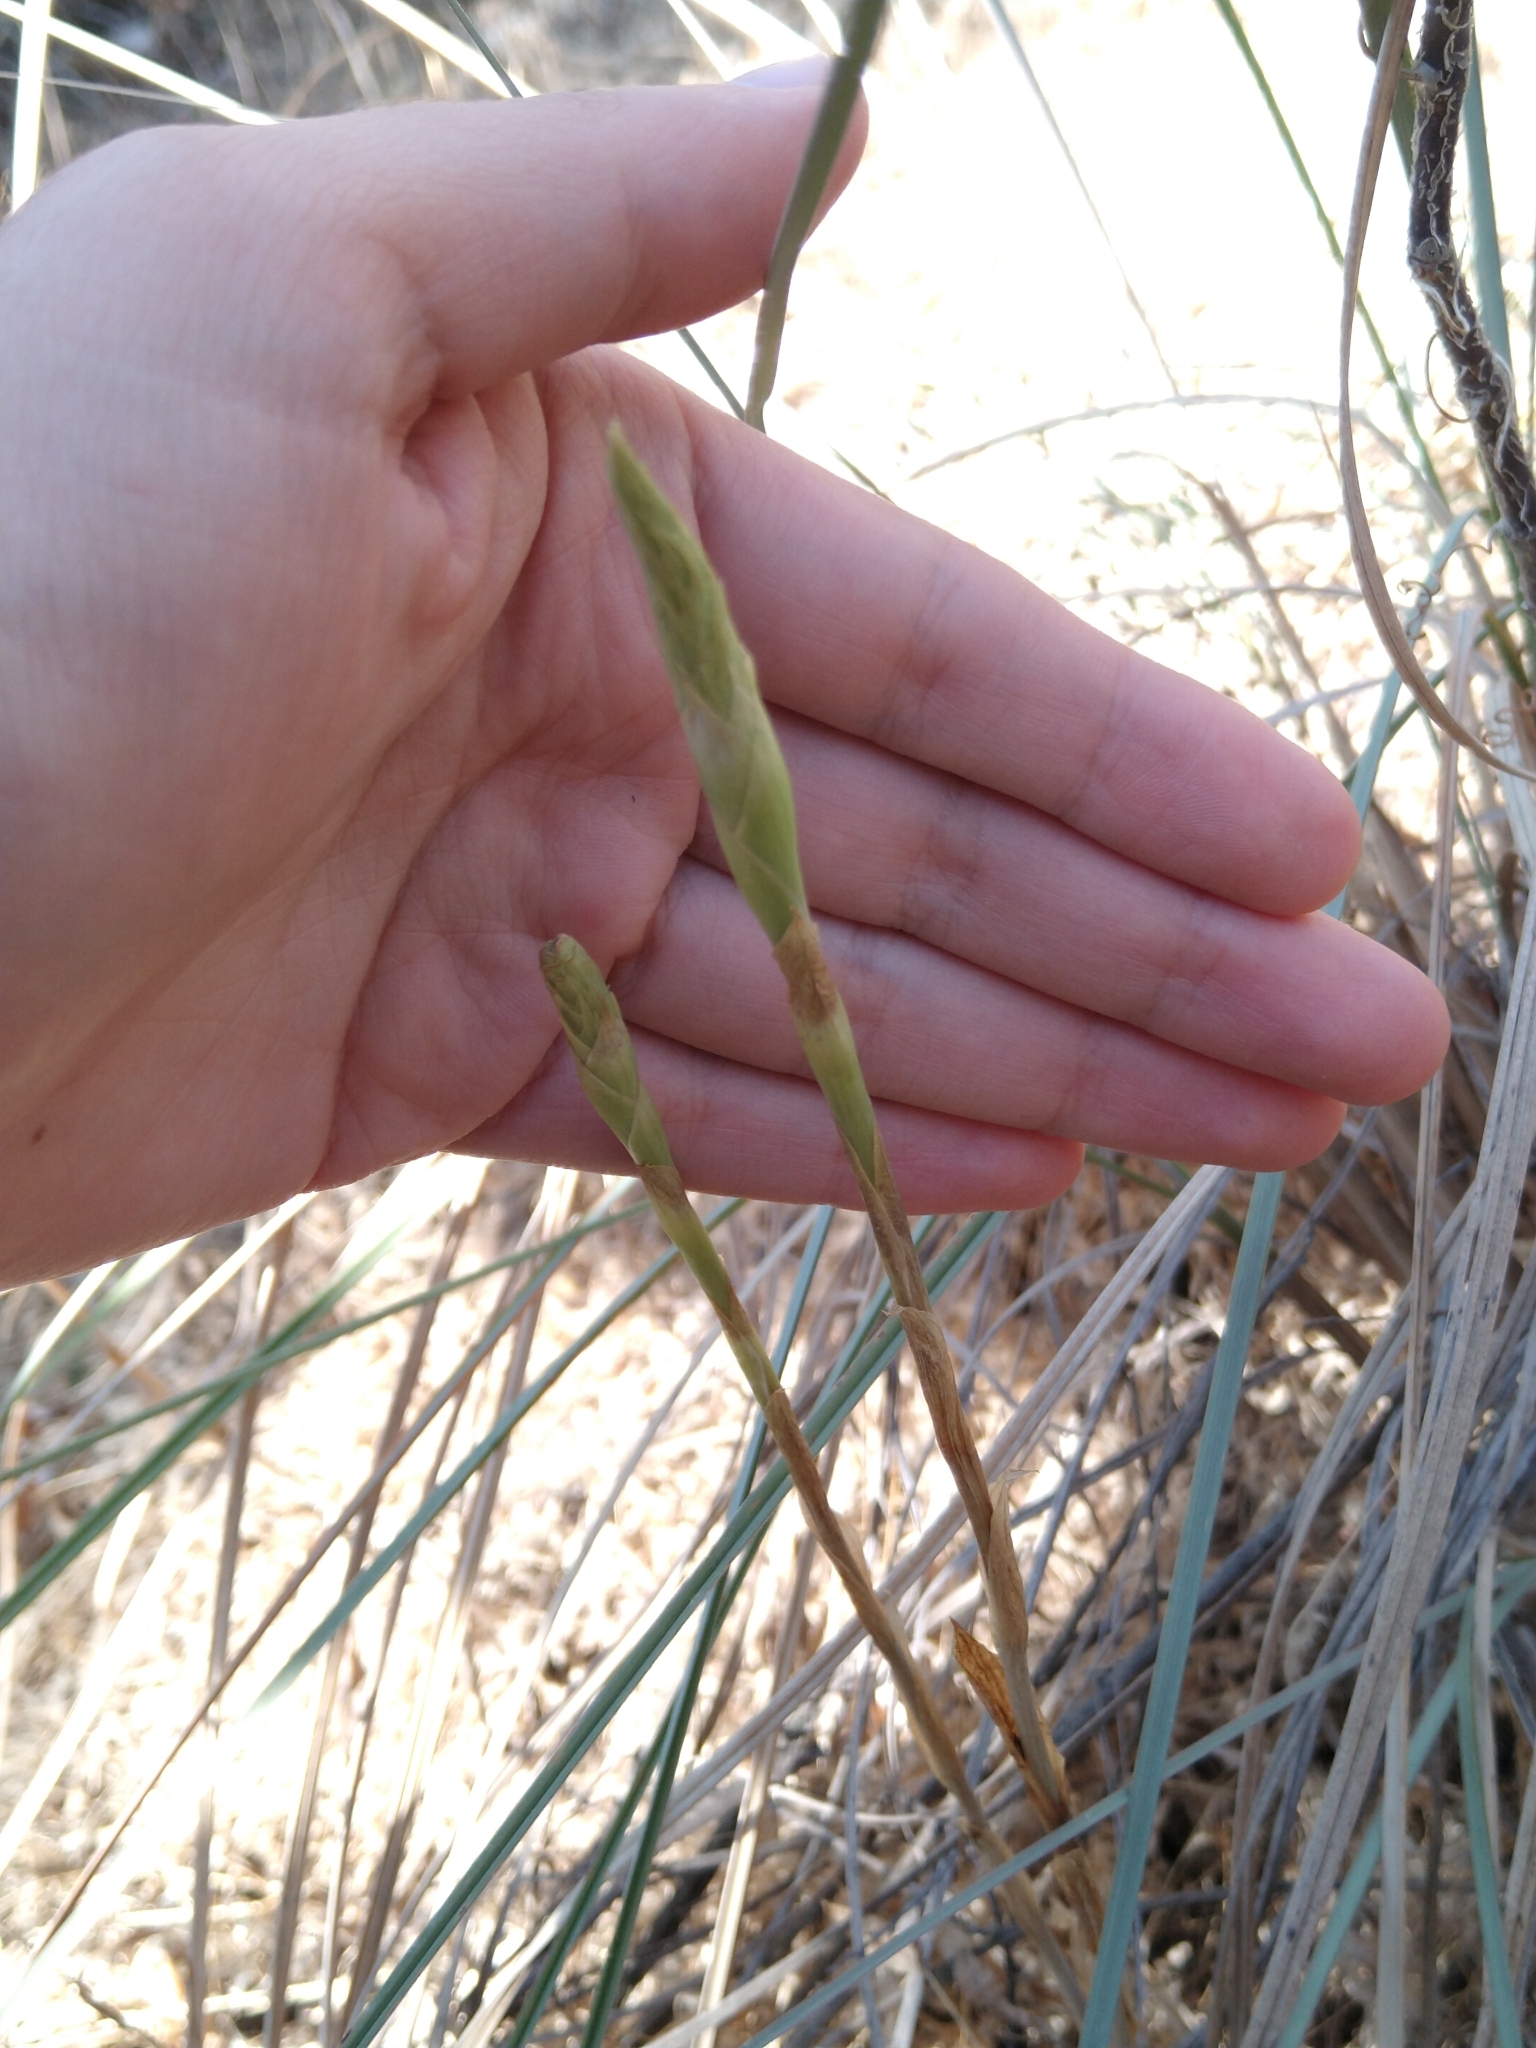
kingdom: Plantae
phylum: Tracheophyta
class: Liliopsida
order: Asparagales
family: Orchidaceae
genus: Aulosepalum
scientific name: Aulosepalum pyramidale
